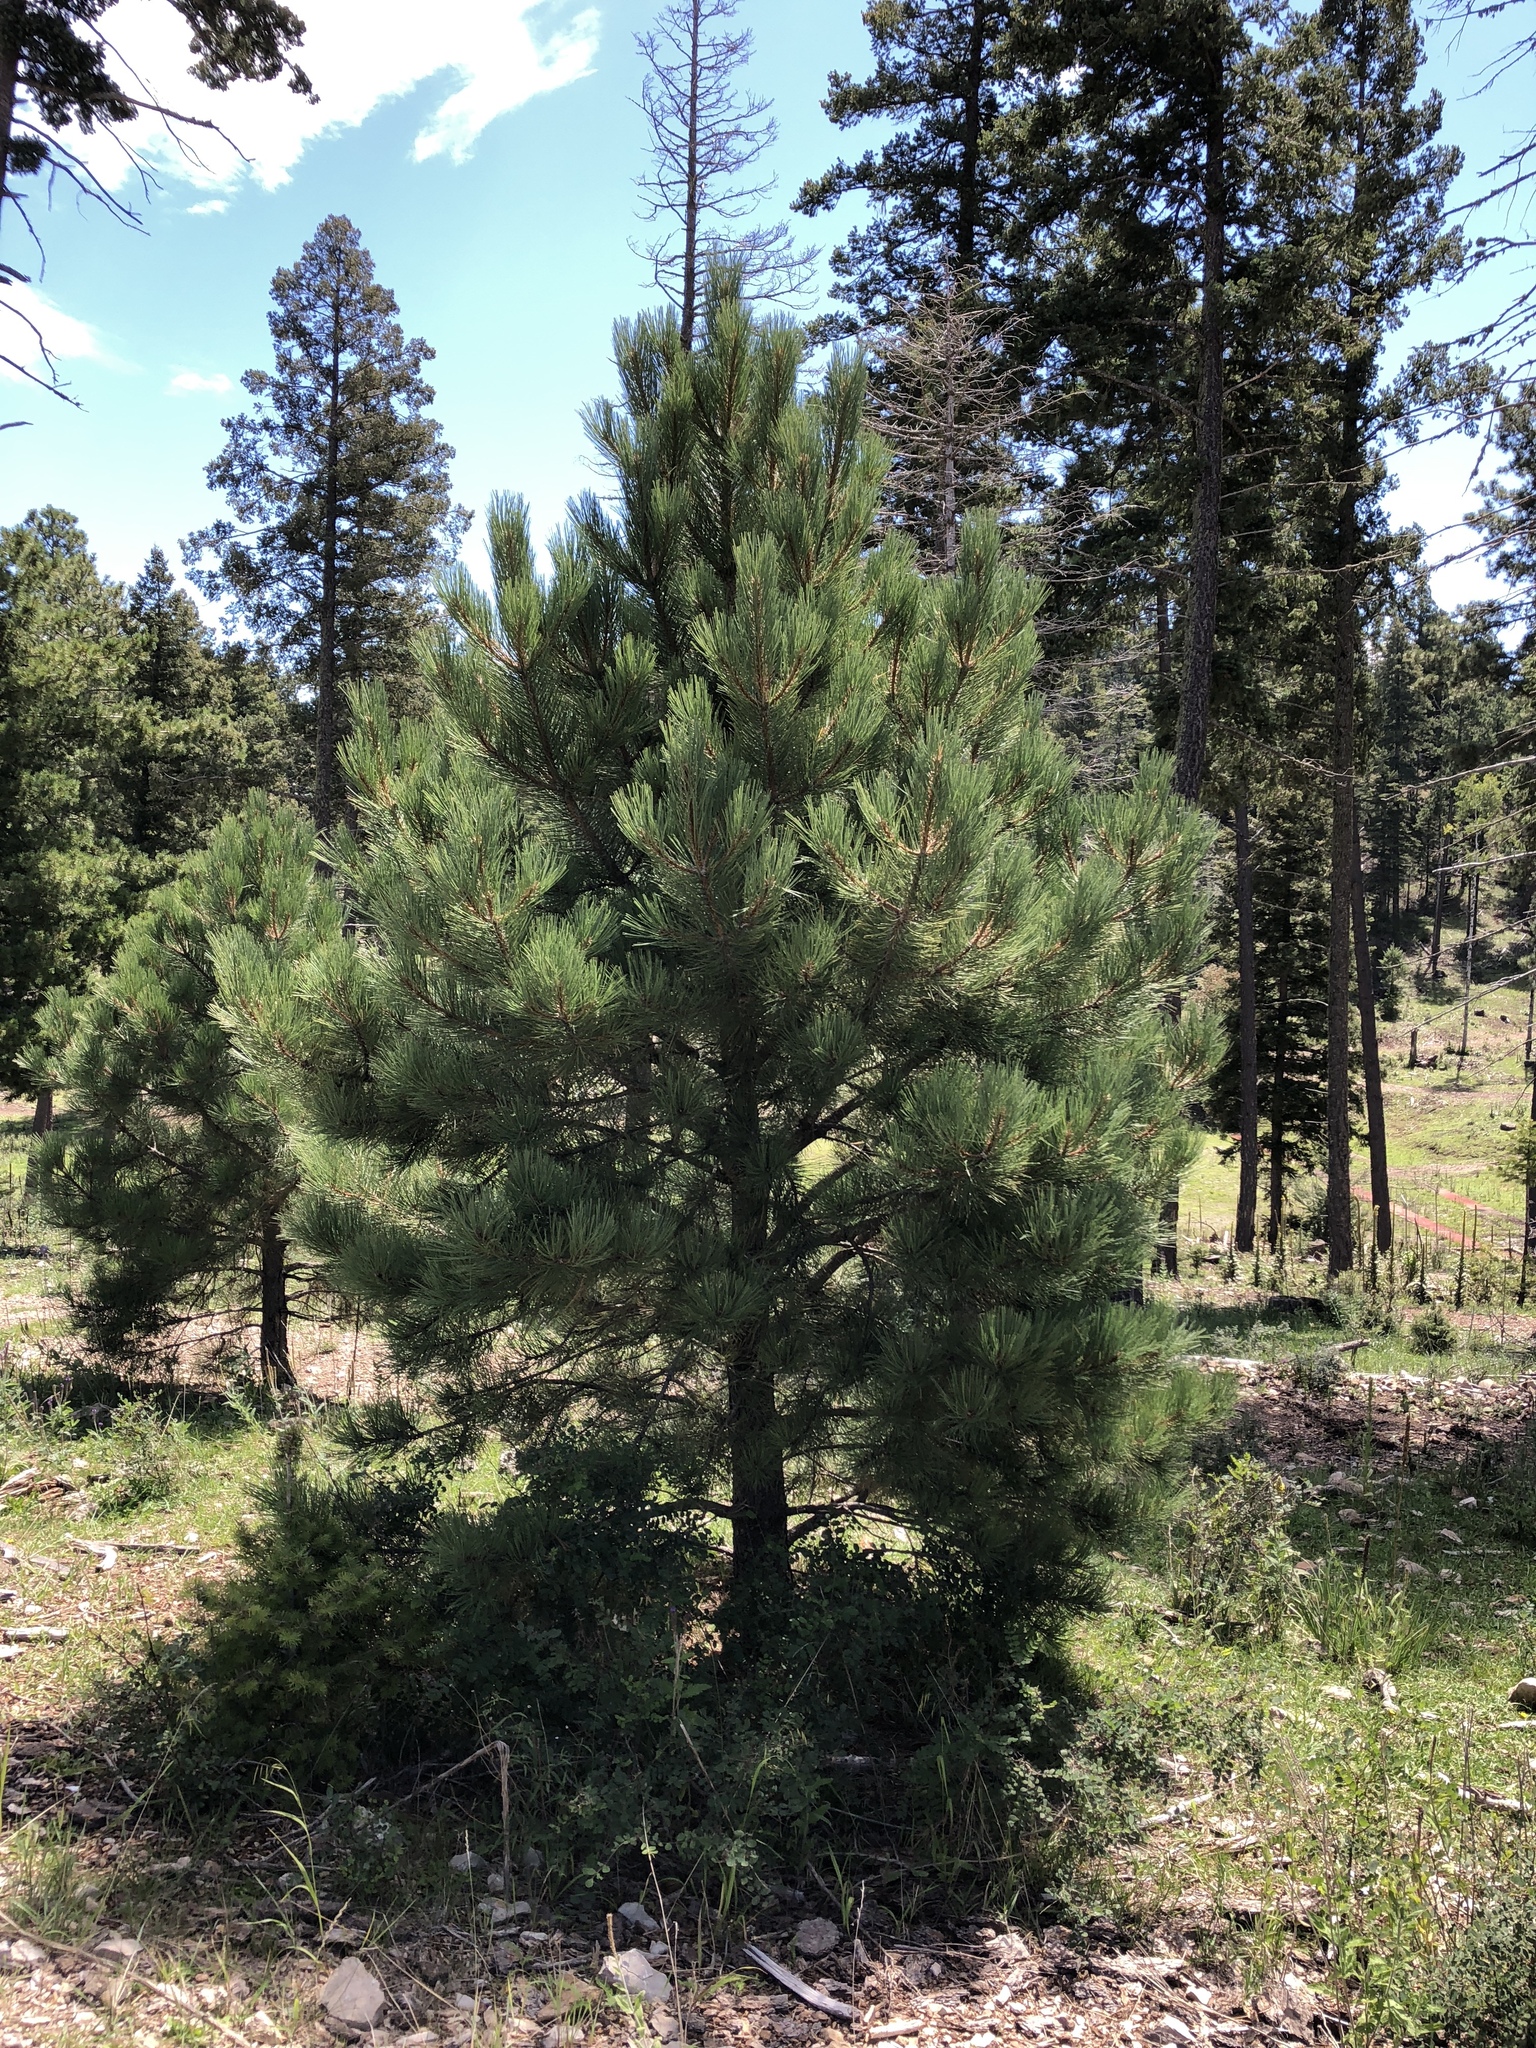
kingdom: Plantae
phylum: Tracheophyta
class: Pinopsida
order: Pinales
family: Pinaceae
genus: Pinus
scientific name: Pinus ponderosa
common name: Western yellow-pine
